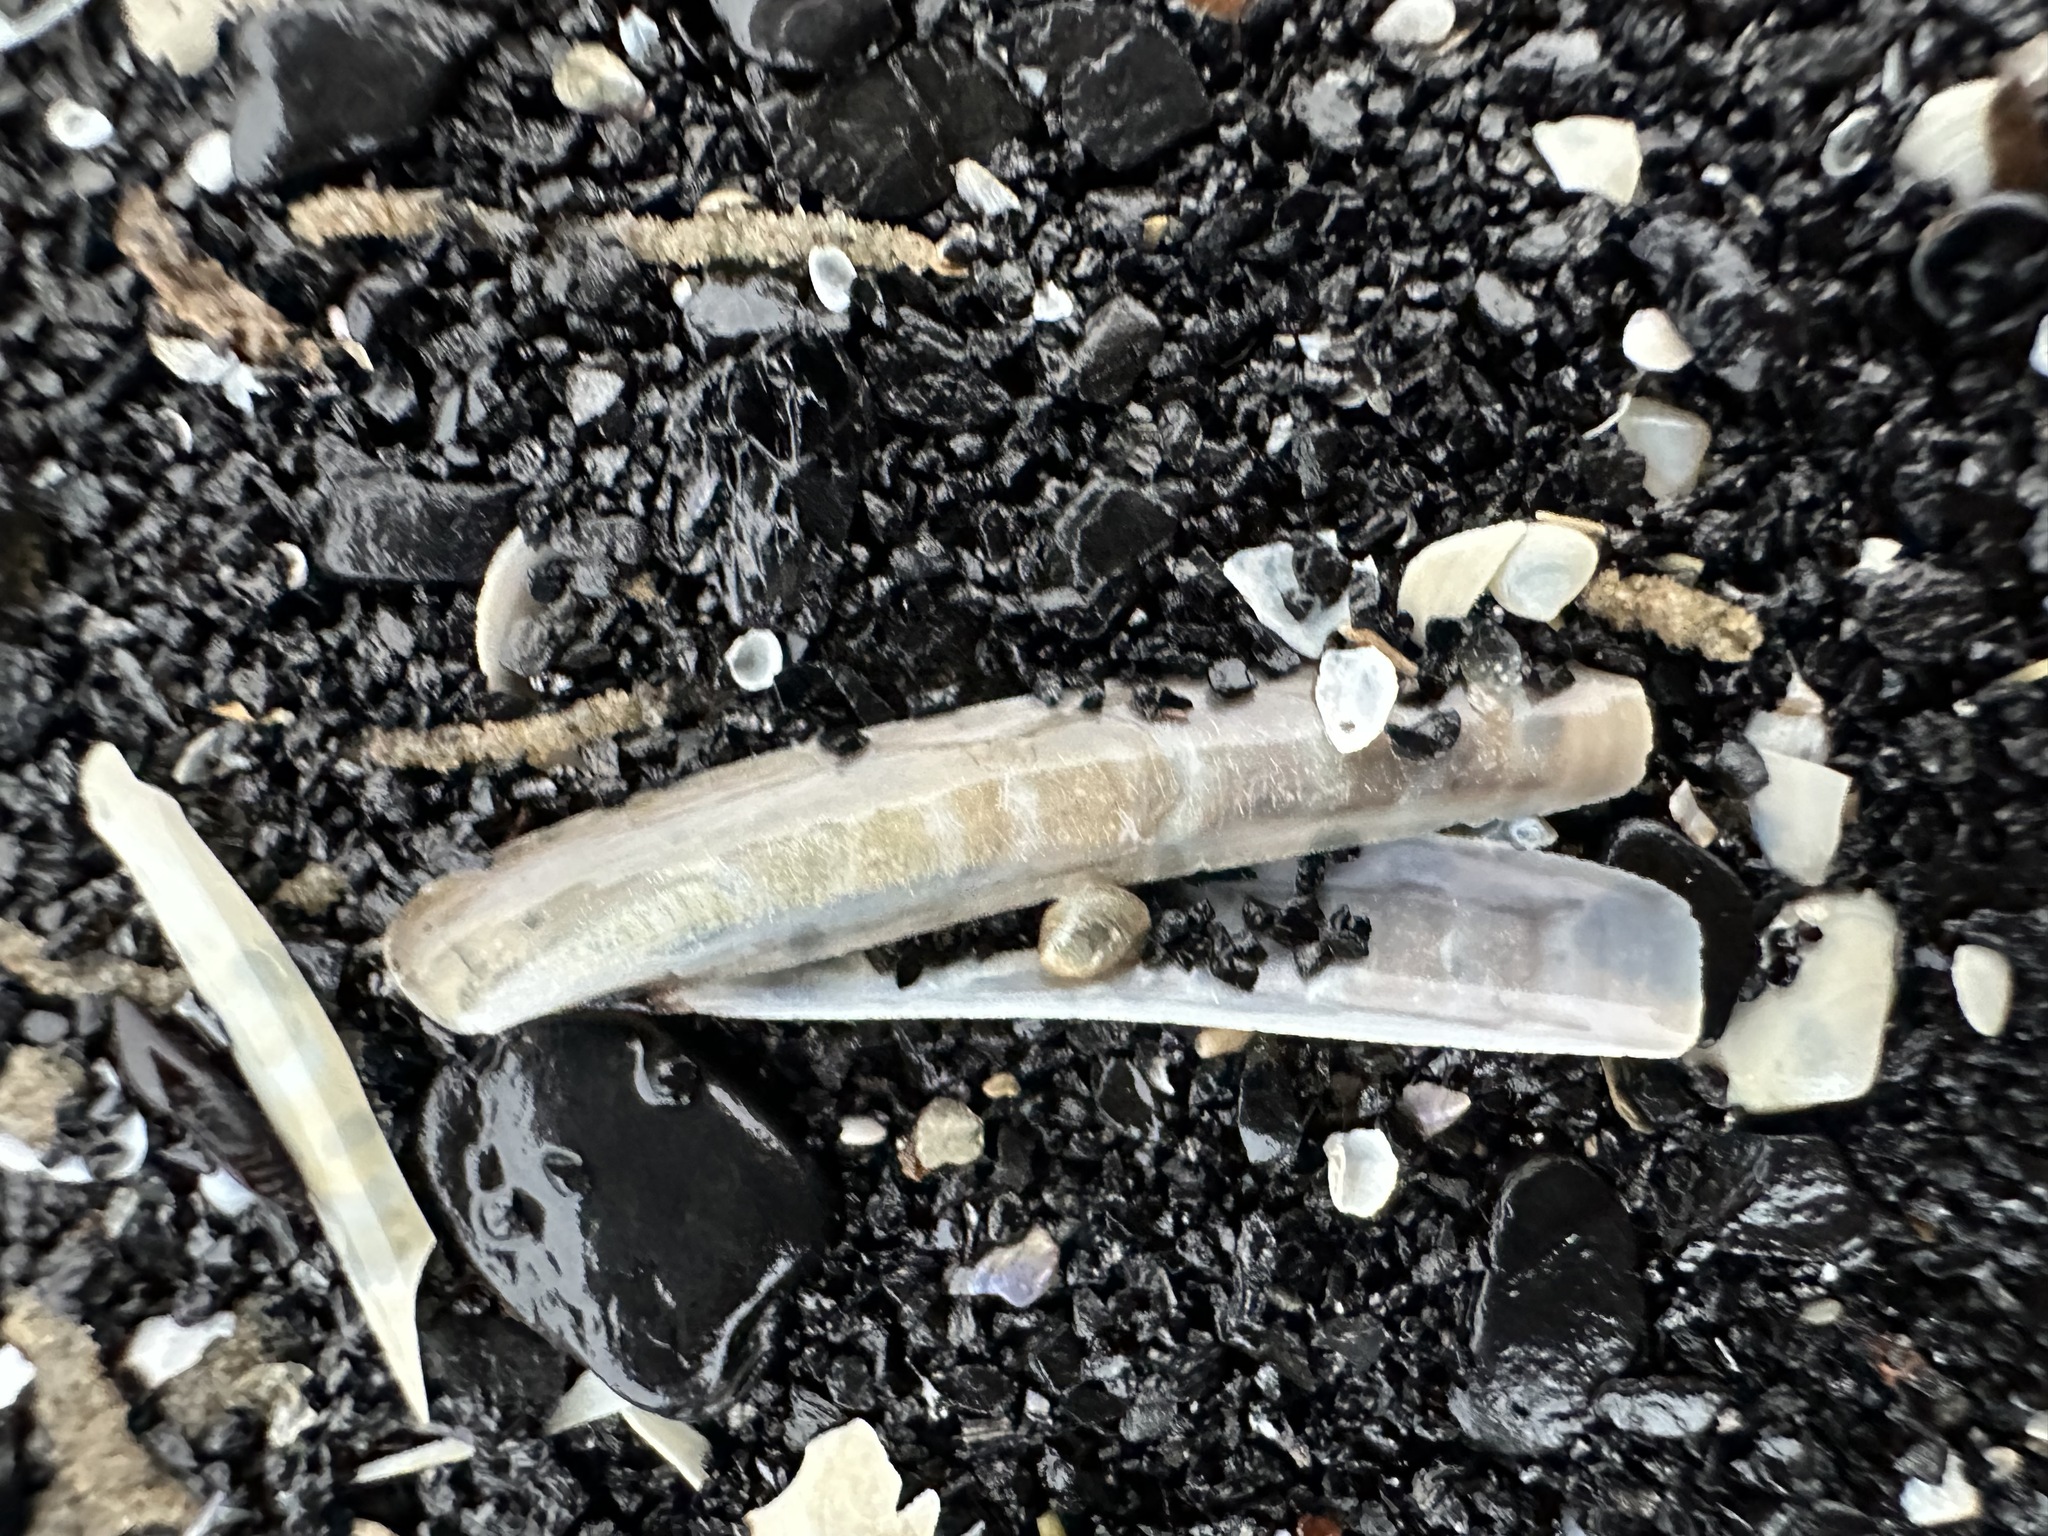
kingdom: Animalia
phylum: Mollusca
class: Bivalvia
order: Adapedonta
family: Pharidae
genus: Ensis
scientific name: Ensis leei
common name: American jack knife clam
